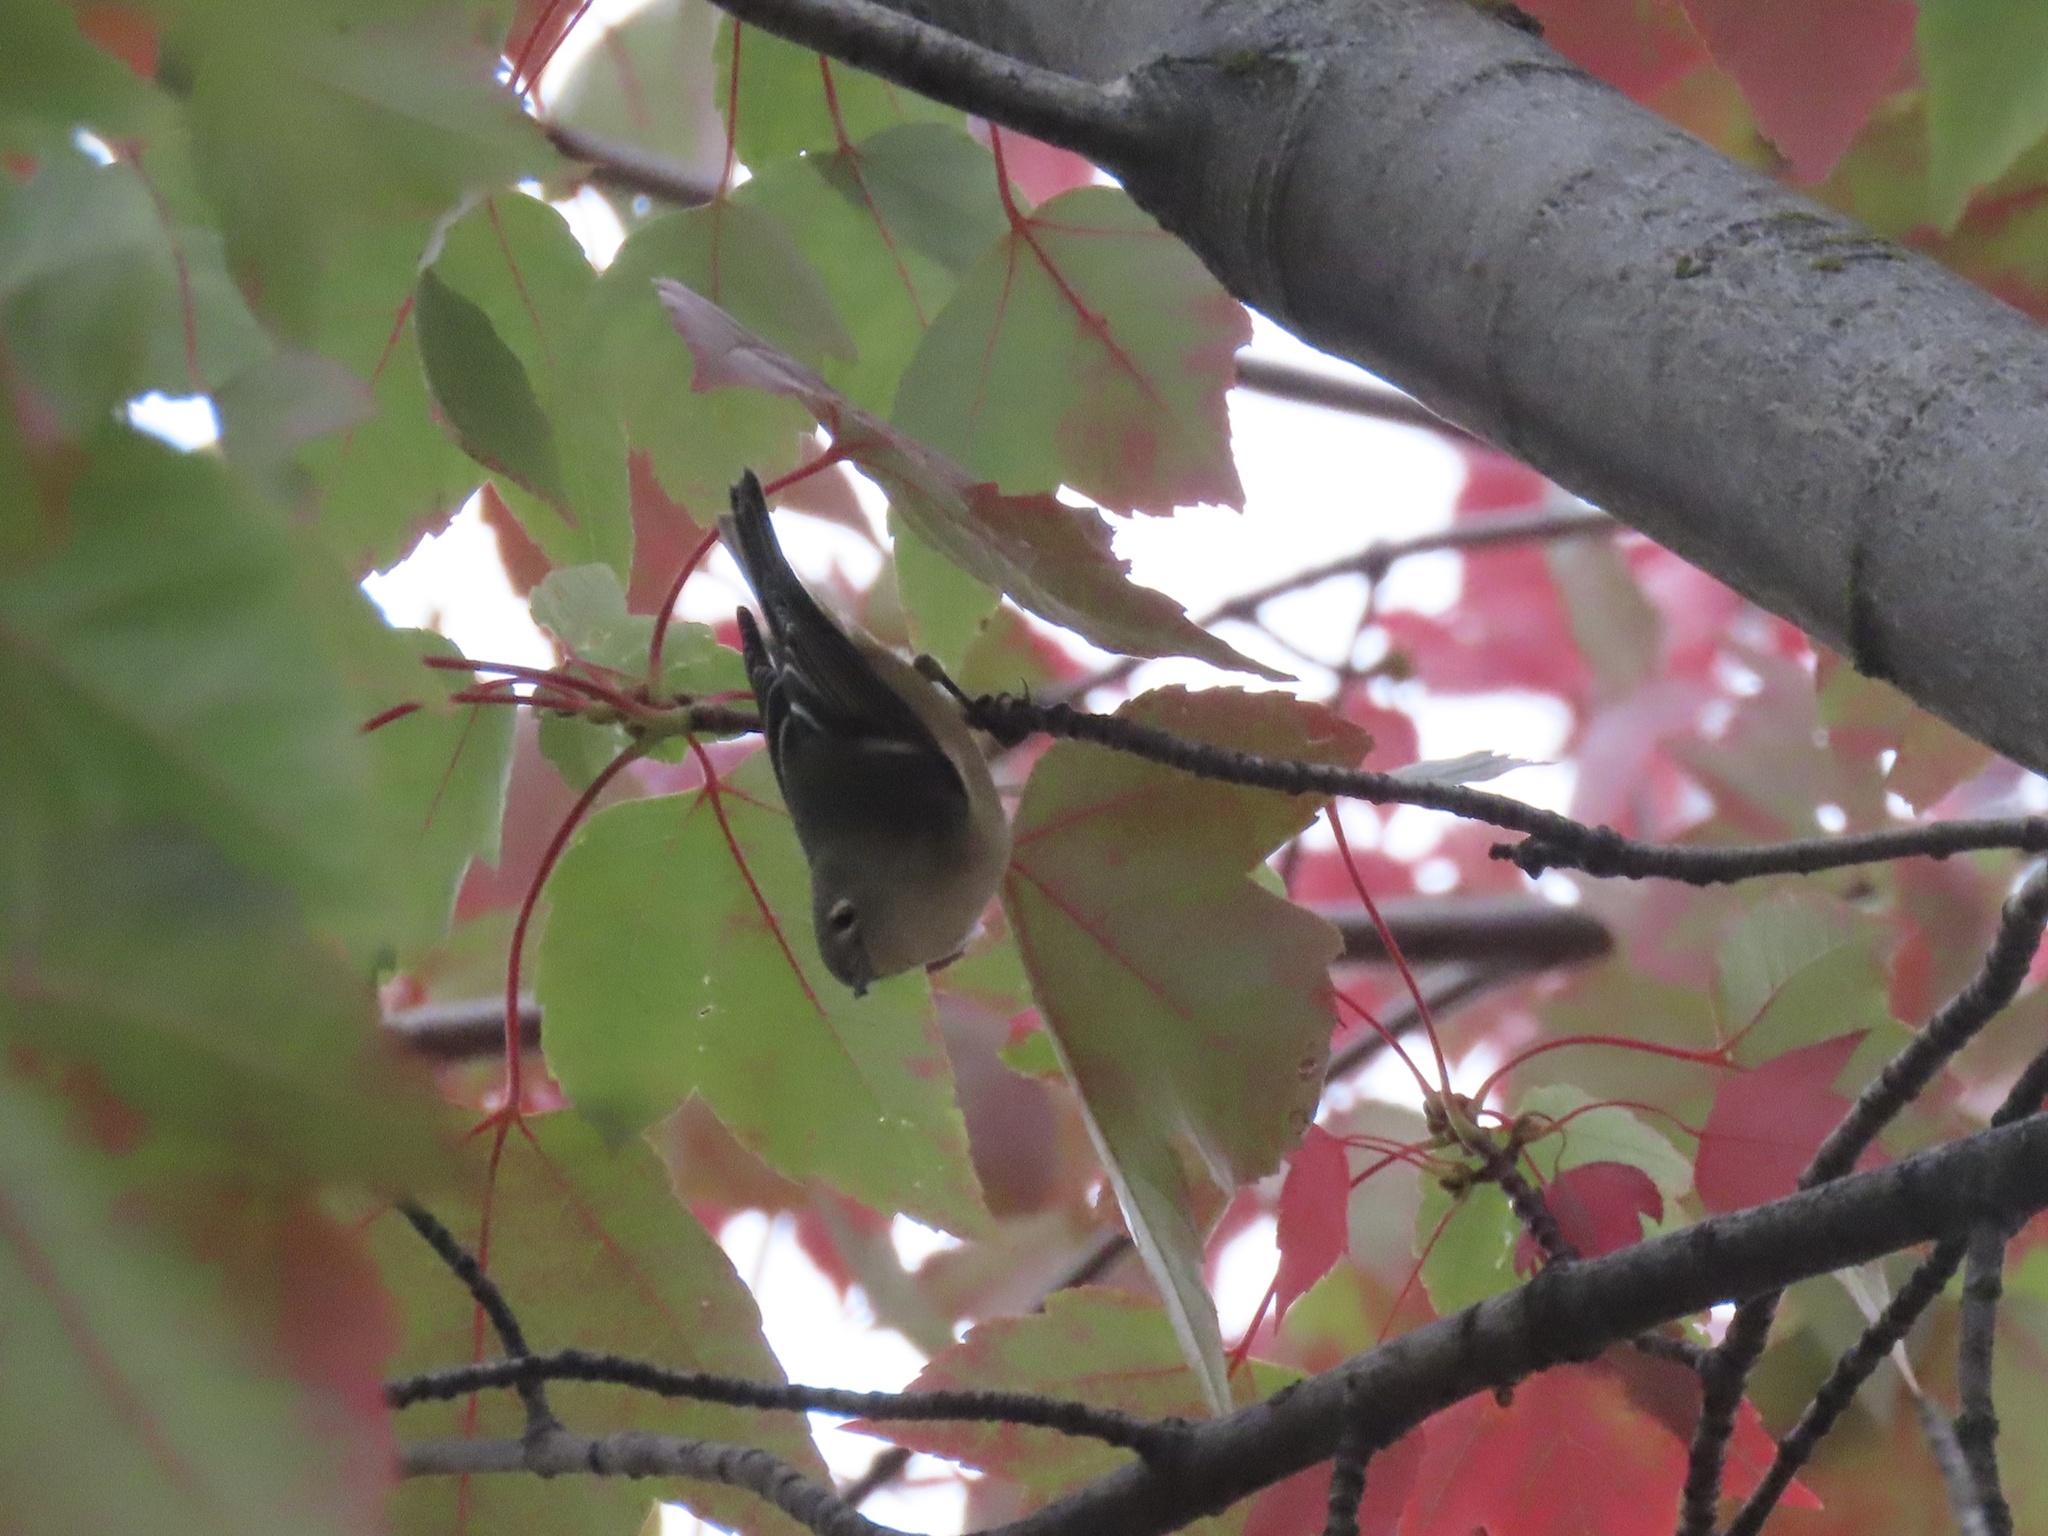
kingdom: Animalia
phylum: Chordata
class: Aves
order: Passeriformes
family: Regulidae
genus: Regulus
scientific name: Regulus calendula
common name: Ruby-crowned kinglet
